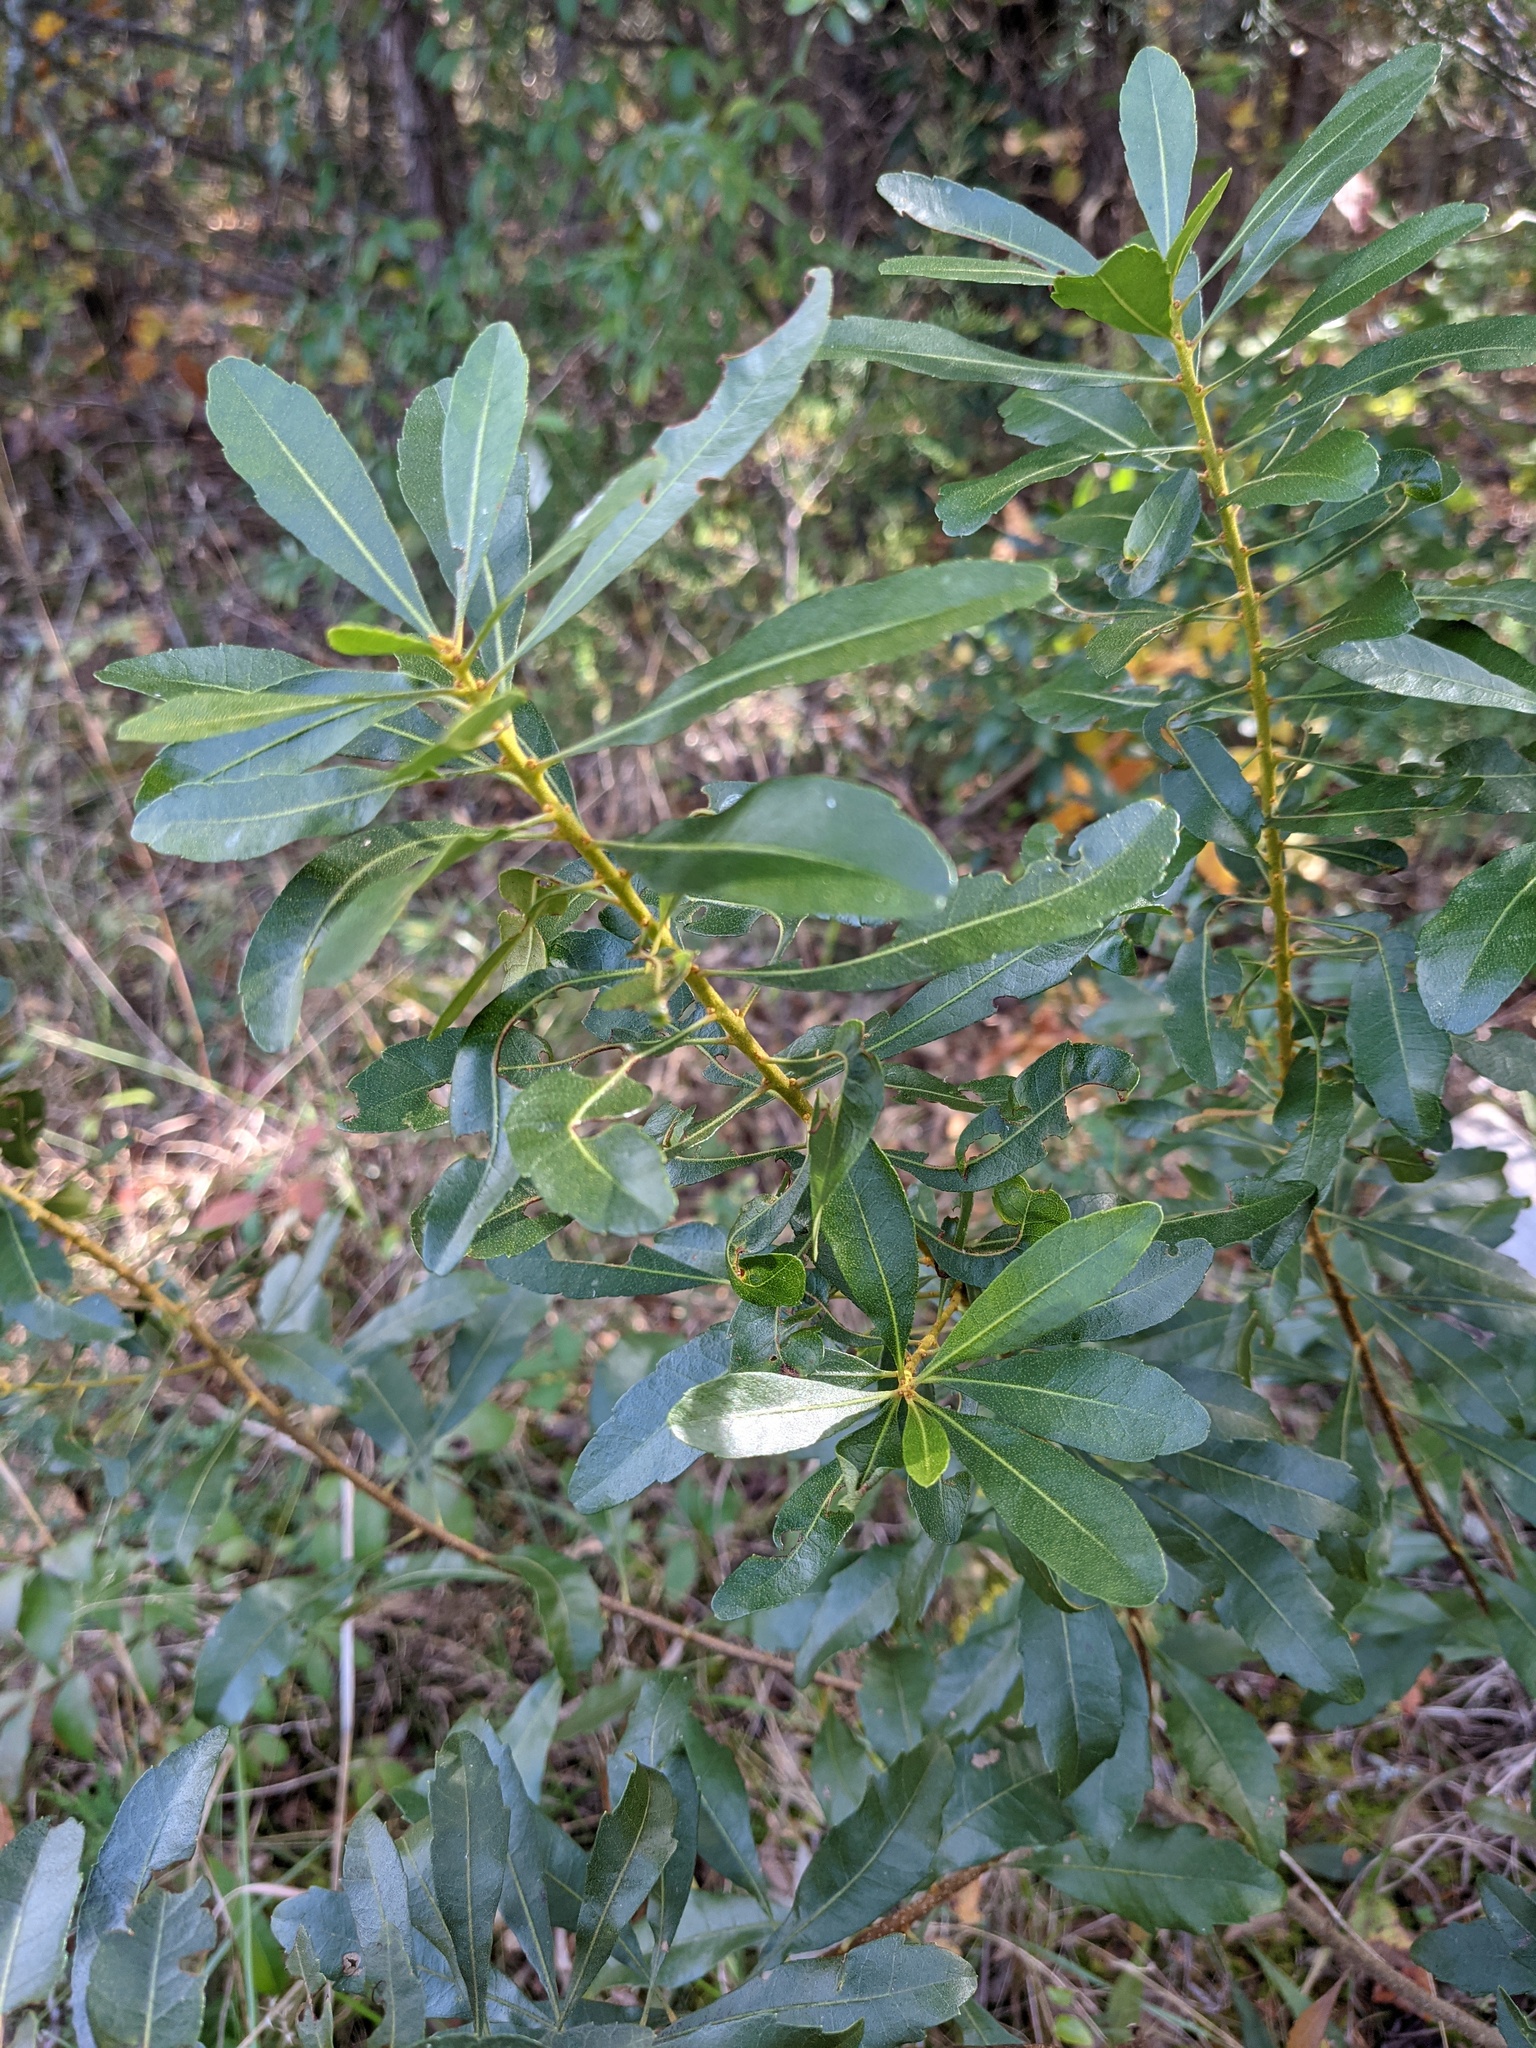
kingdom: Plantae
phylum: Tracheophyta
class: Magnoliopsida
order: Fagales
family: Myricaceae
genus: Morella
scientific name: Morella cerifera
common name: Wax myrtle
